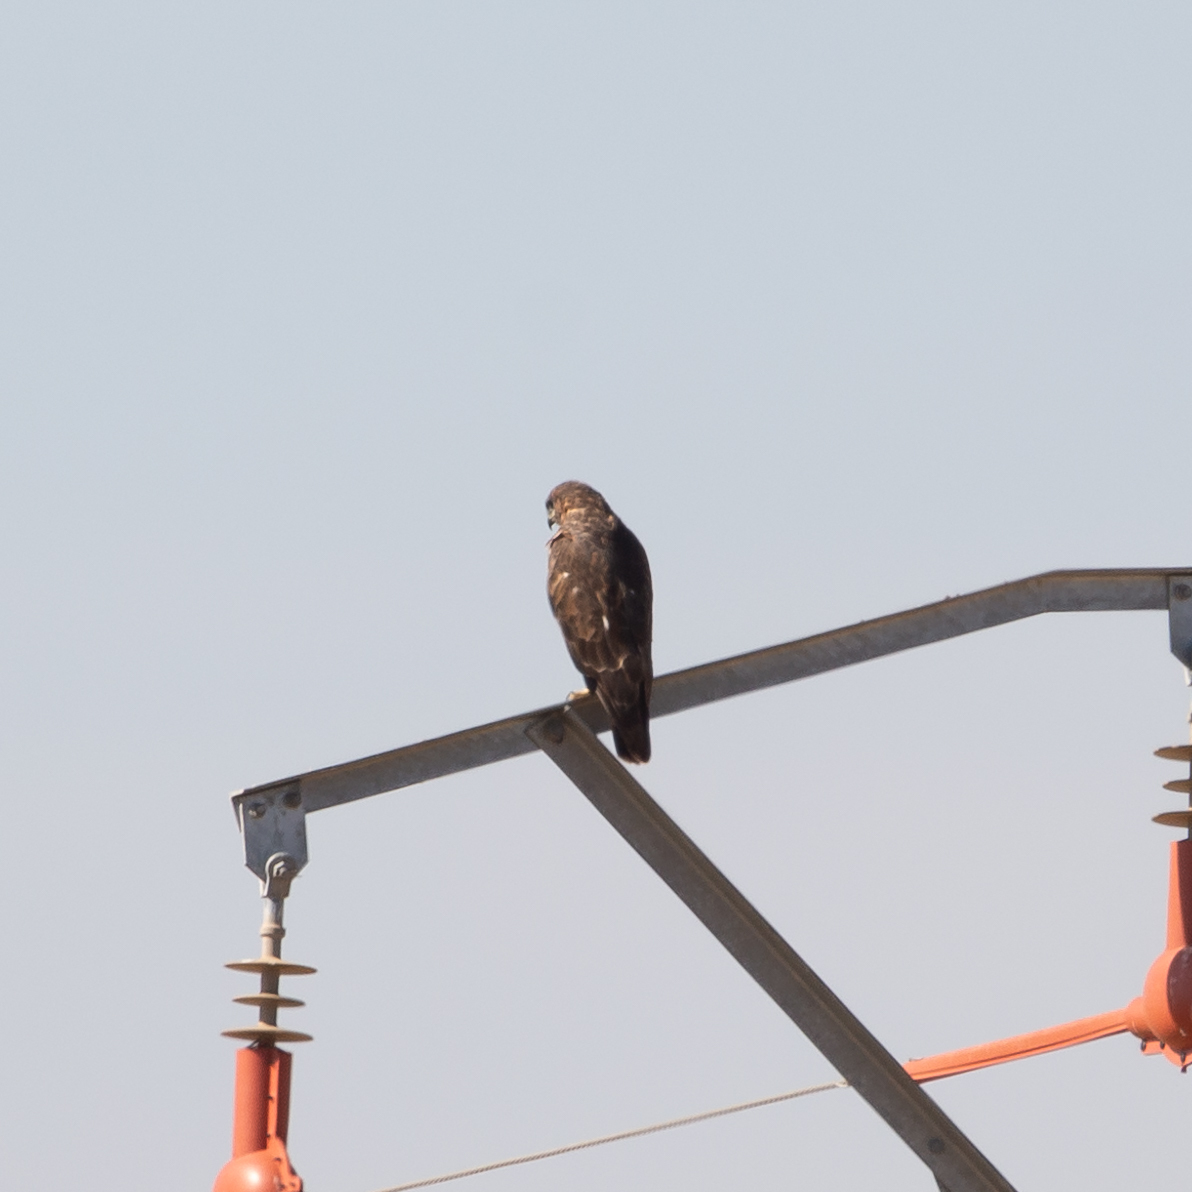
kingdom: Animalia
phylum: Chordata
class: Aves
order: Accipitriformes
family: Accipitridae
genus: Buteo
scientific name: Buteo buteo
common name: Common buzzard
